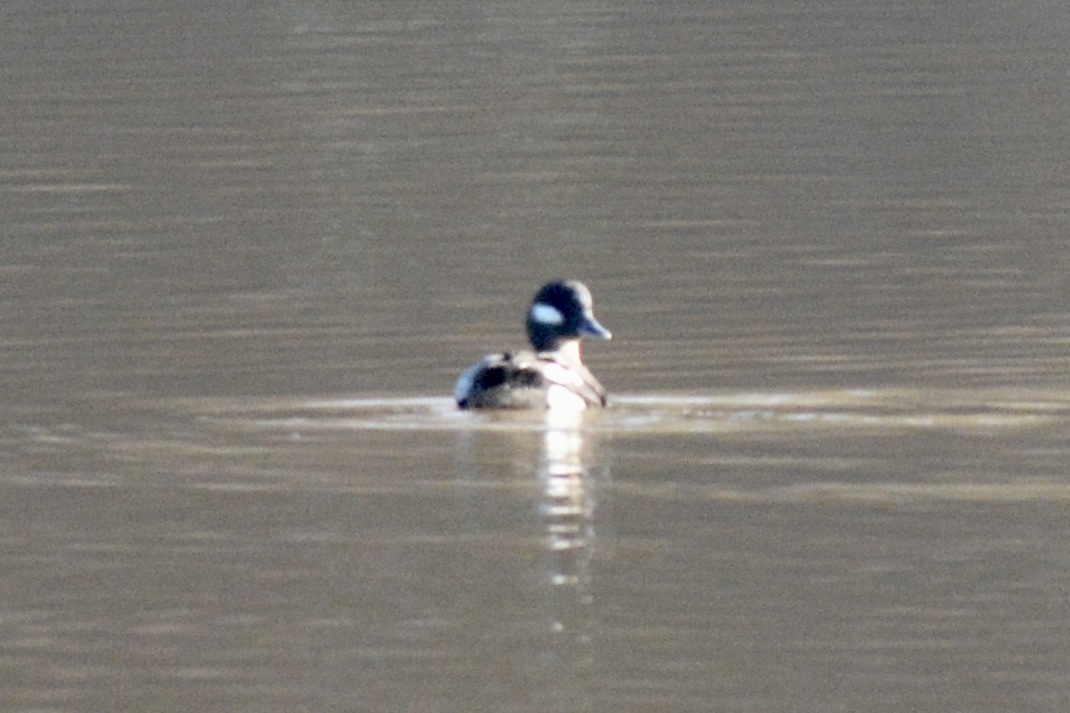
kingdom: Animalia
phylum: Chordata
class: Aves
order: Anseriformes
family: Anatidae
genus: Bucephala
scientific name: Bucephala albeola
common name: Bufflehead
